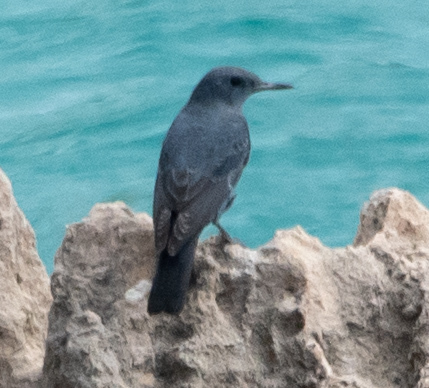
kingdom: Animalia
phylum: Chordata
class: Aves
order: Passeriformes
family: Muscicapidae
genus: Monticola
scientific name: Monticola solitarius
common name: Blue rock thrush
